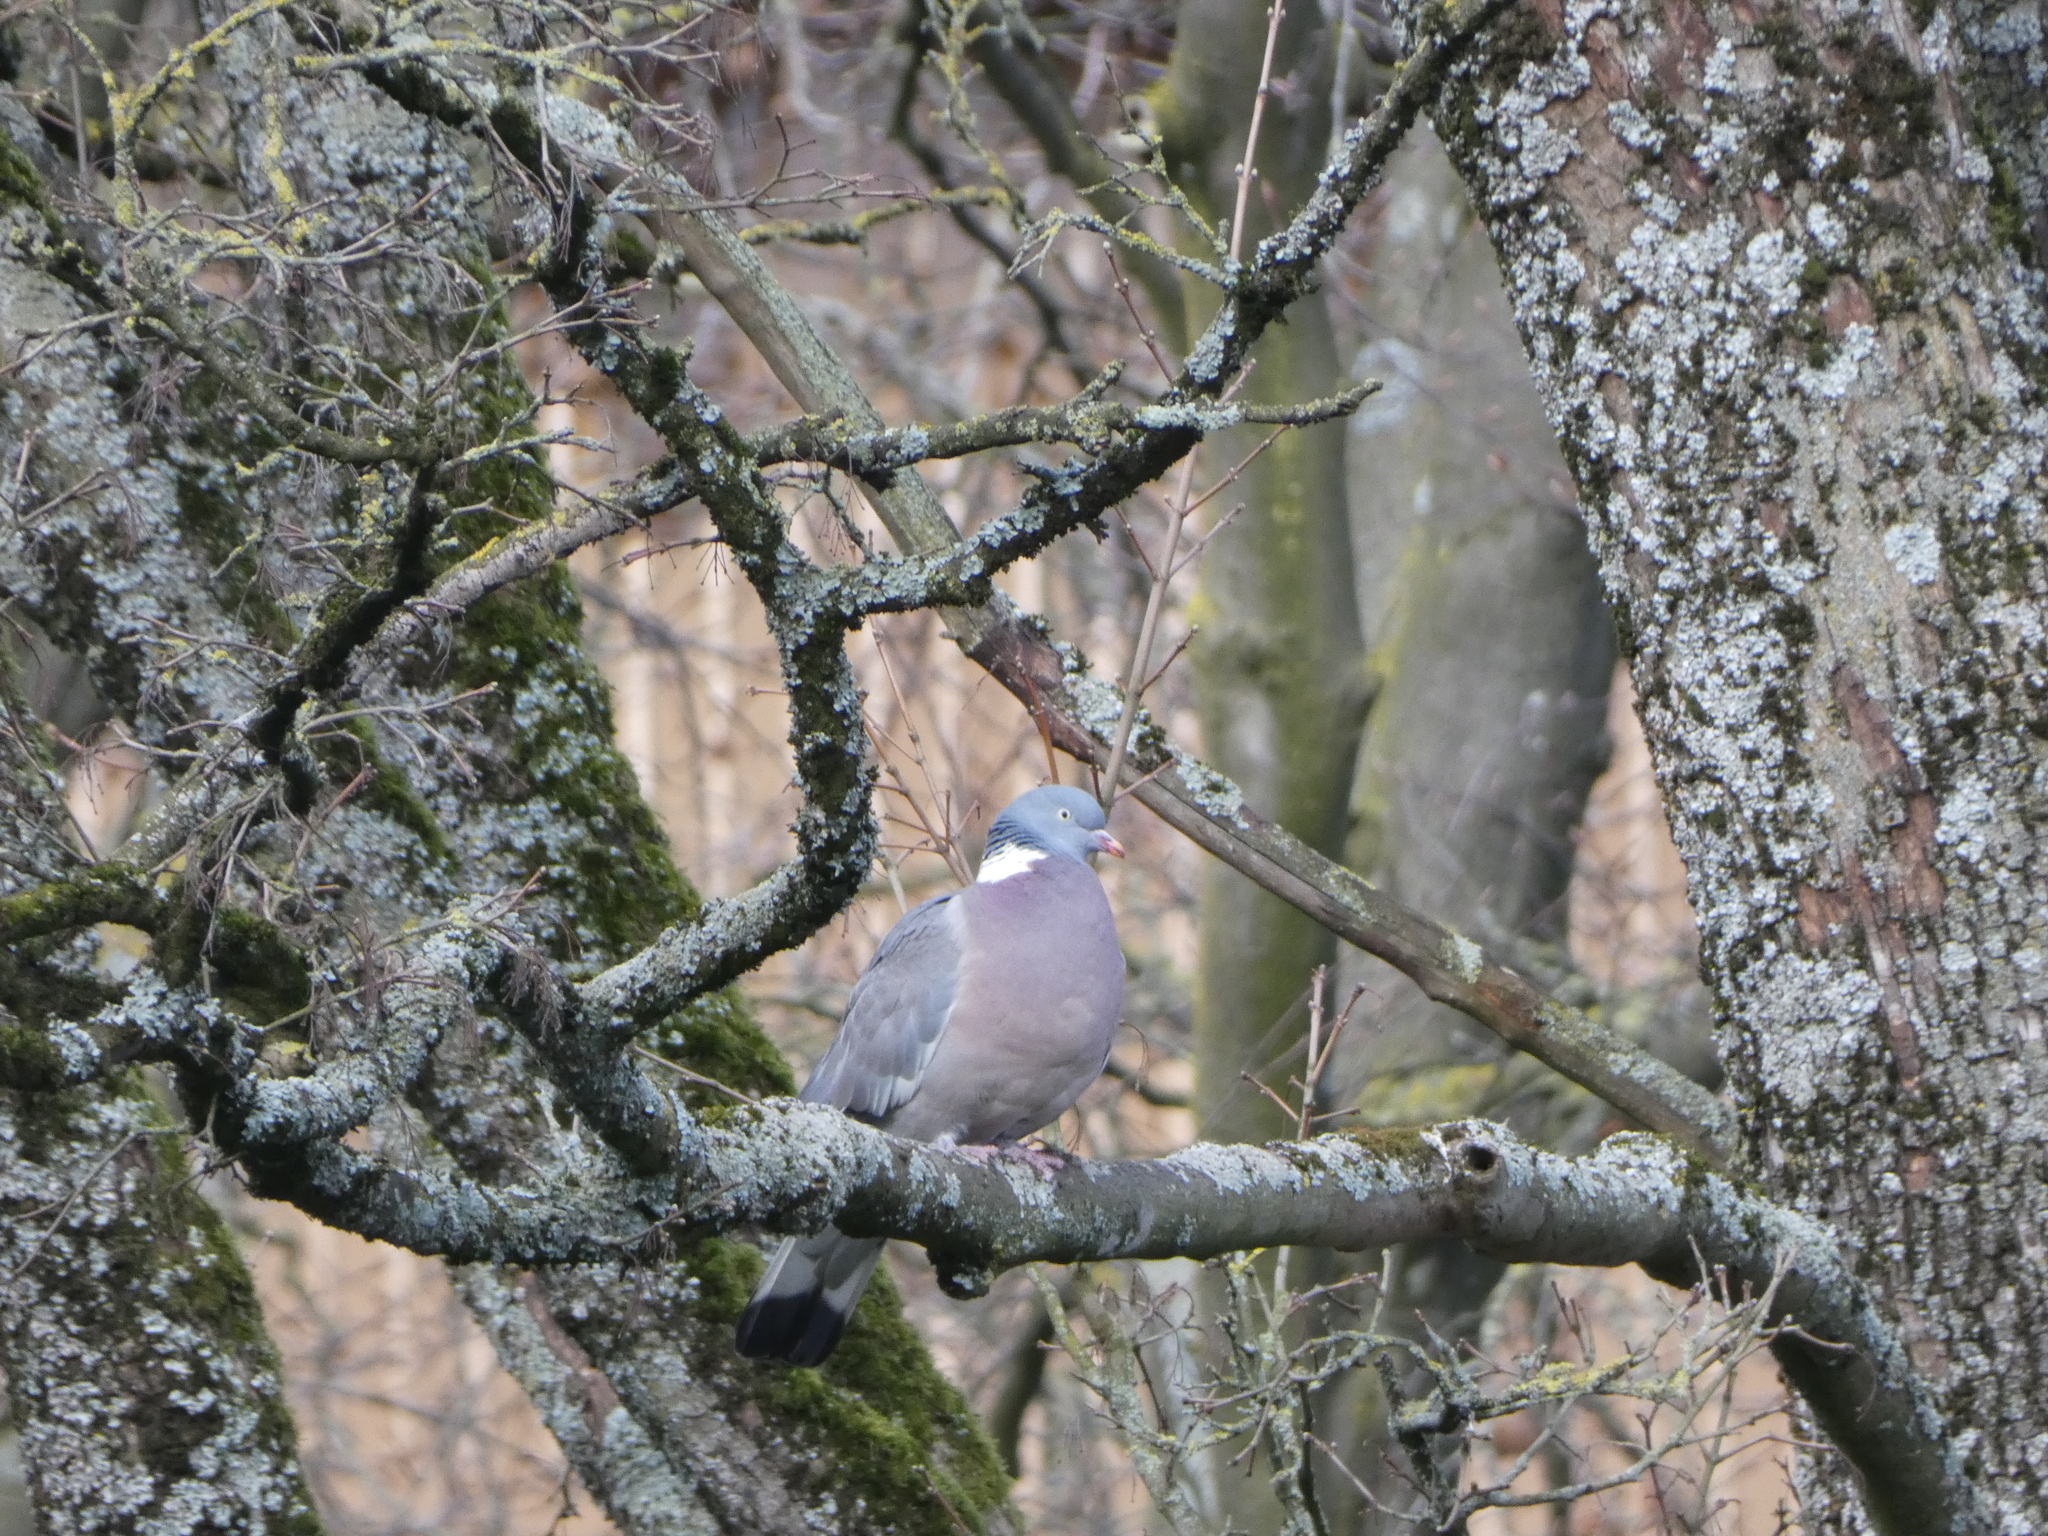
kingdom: Animalia
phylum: Chordata
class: Aves
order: Columbiformes
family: Columbidae
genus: Columba
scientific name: Columba palumbus
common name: Common wood pigeon
